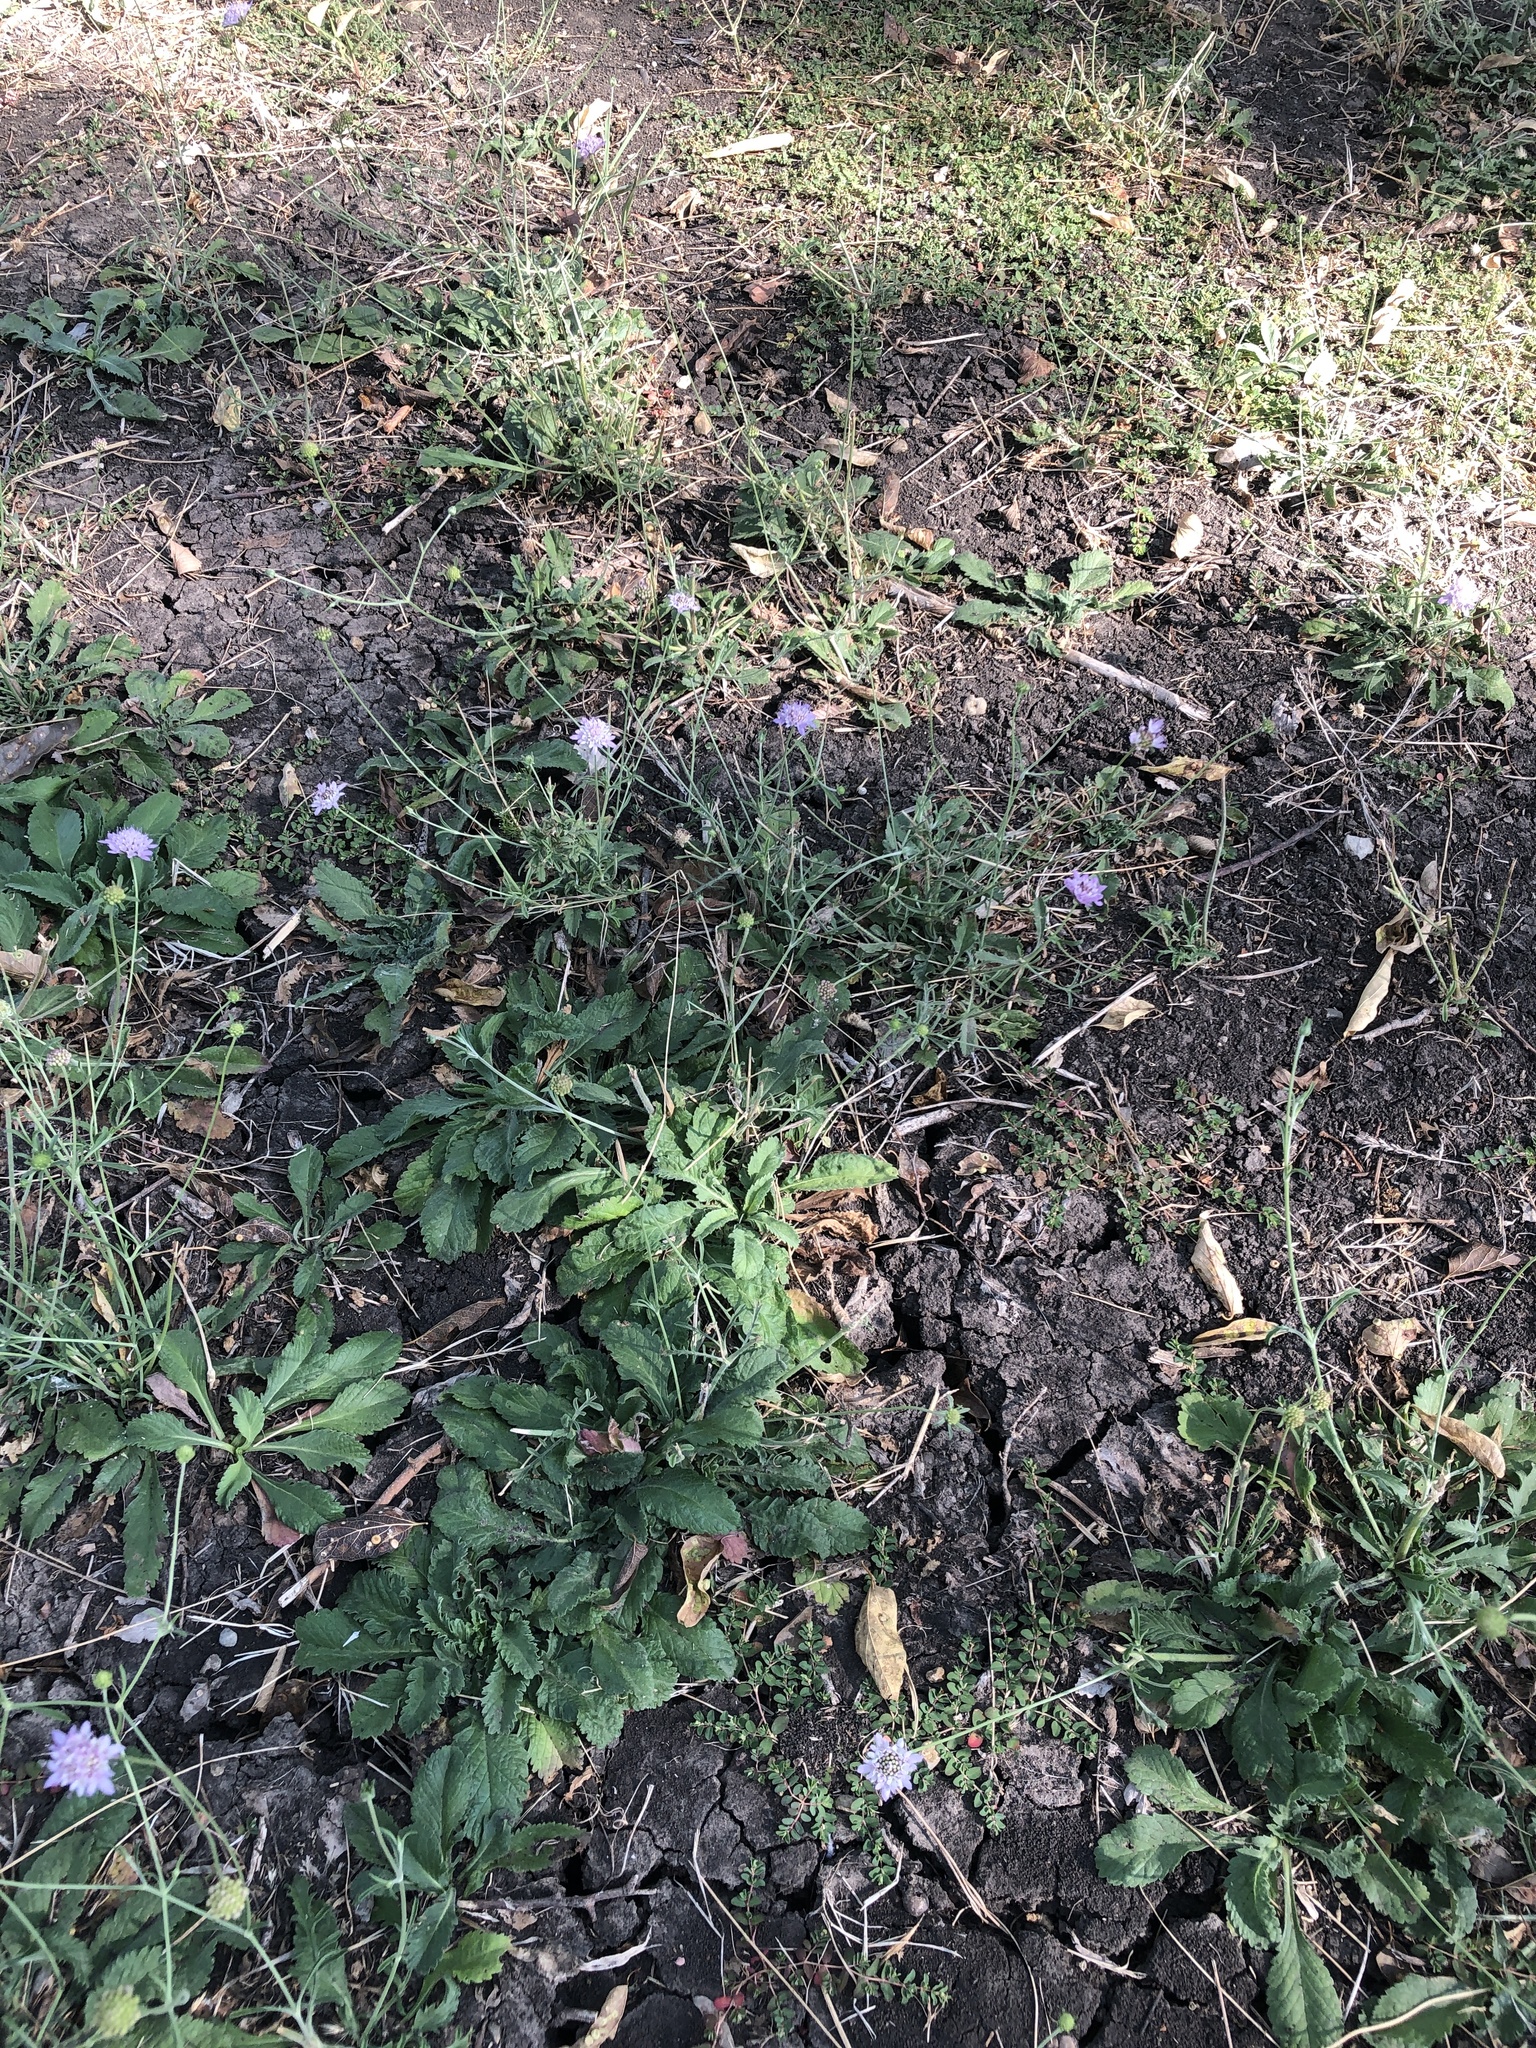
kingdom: Plantae
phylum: Tracheophyta
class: Magnoliopsida
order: Dipsacales
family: Caprifoliaceae
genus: Sixalix
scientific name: Sixalix atropurpurea
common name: Sweet scabious
